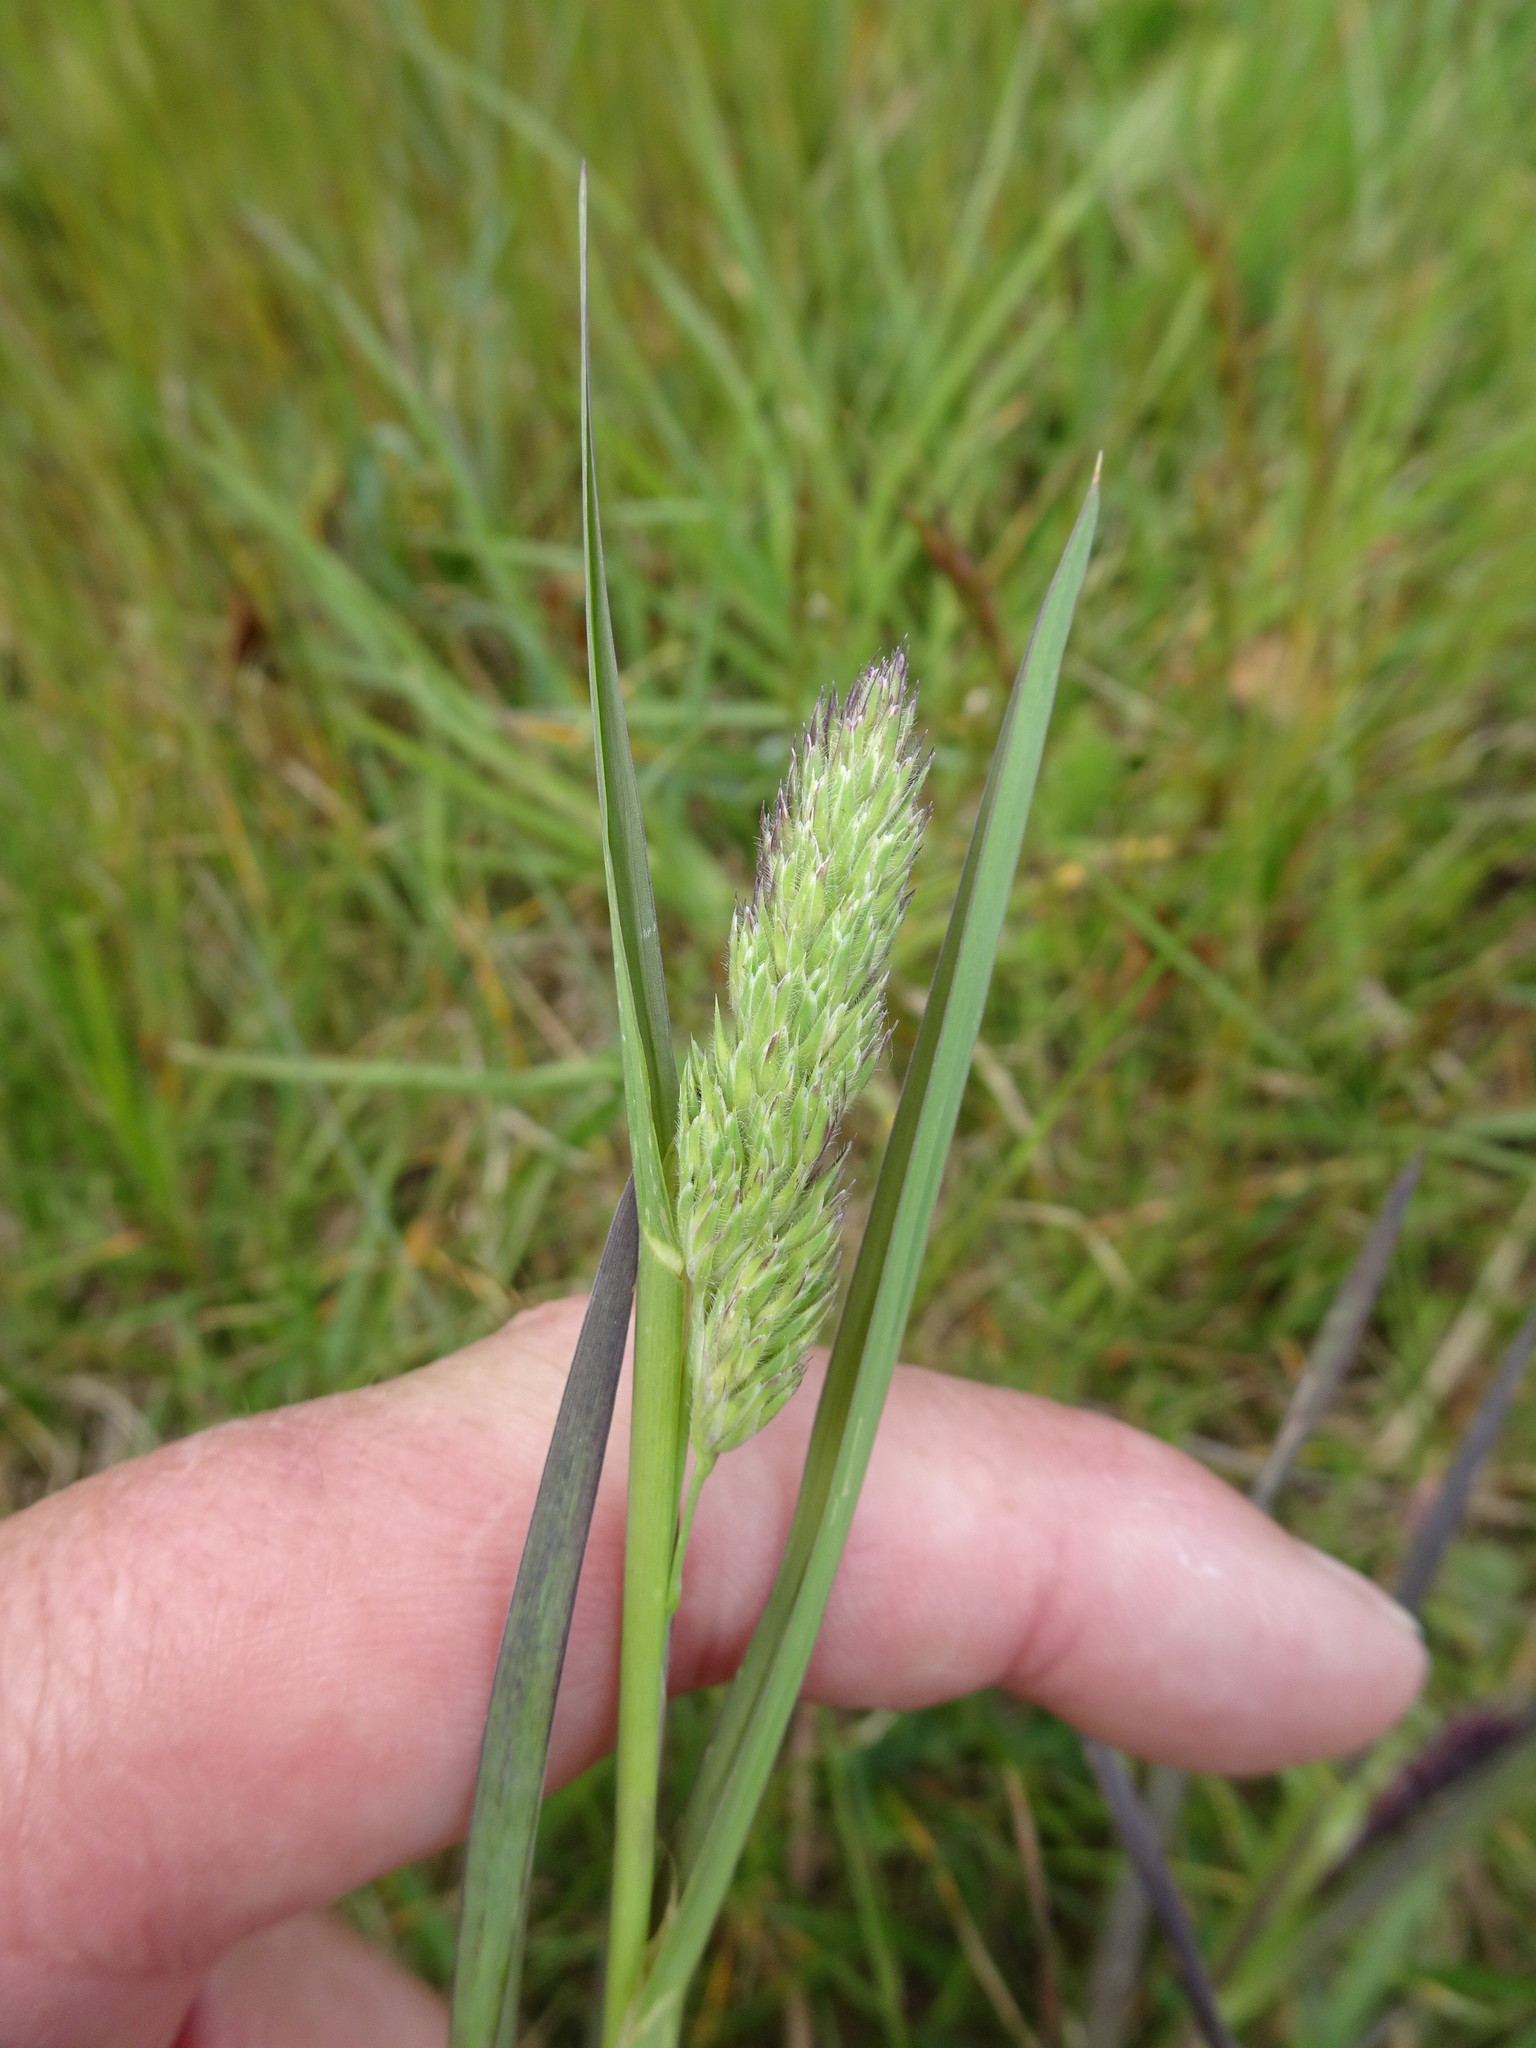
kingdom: Plantae
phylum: Tracheophyta
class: Liliopsida
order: Poales
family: Poaceae
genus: Dactylis
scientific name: Dactylis glomerata
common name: Orchardgrass
